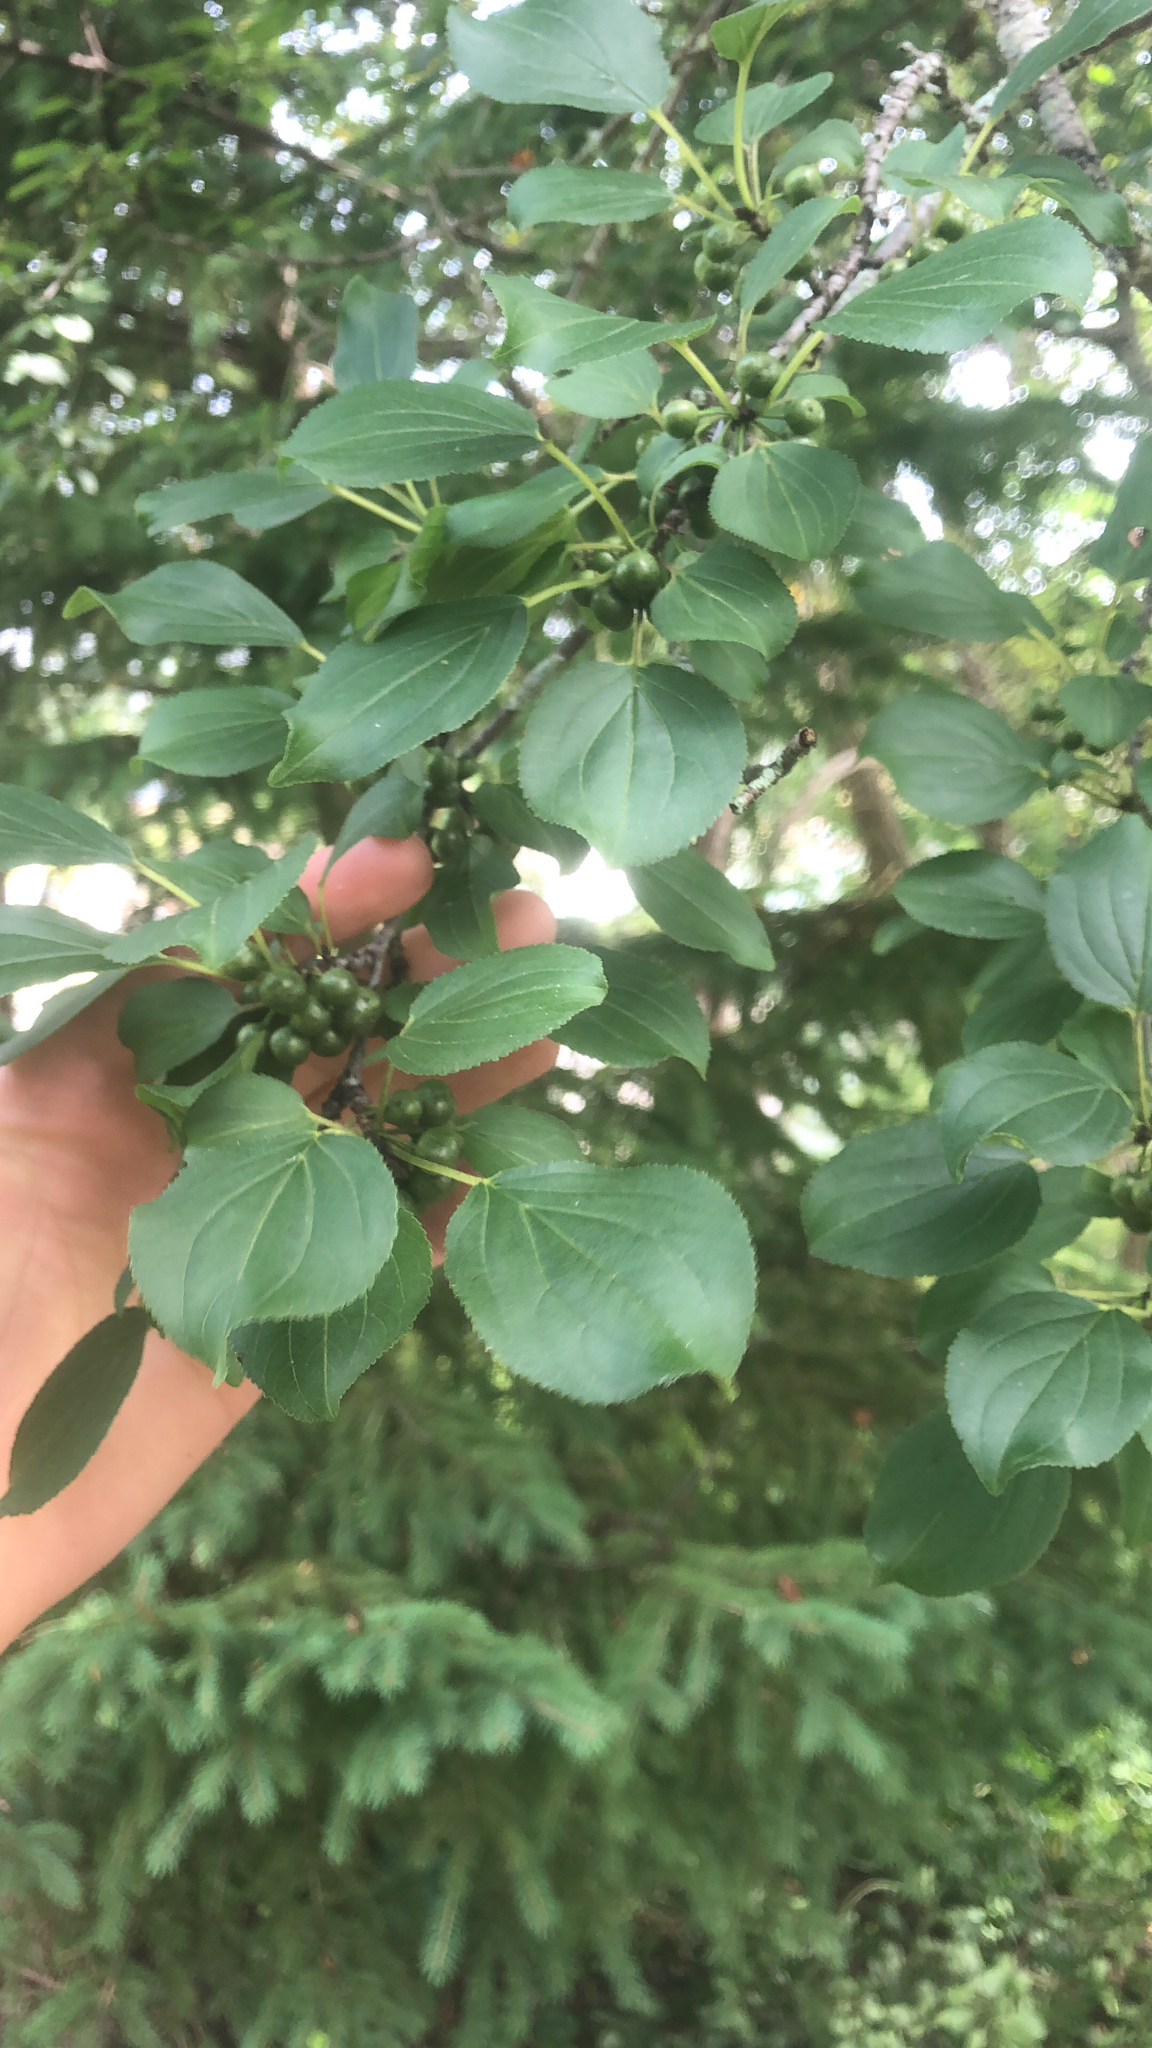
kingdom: Plantae
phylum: Tracheophyta
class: Magnoliopsida
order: Rosales
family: Rhamnaceae
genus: Rhamnus
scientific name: Rhamnus cathartica
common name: Common buckthorn
